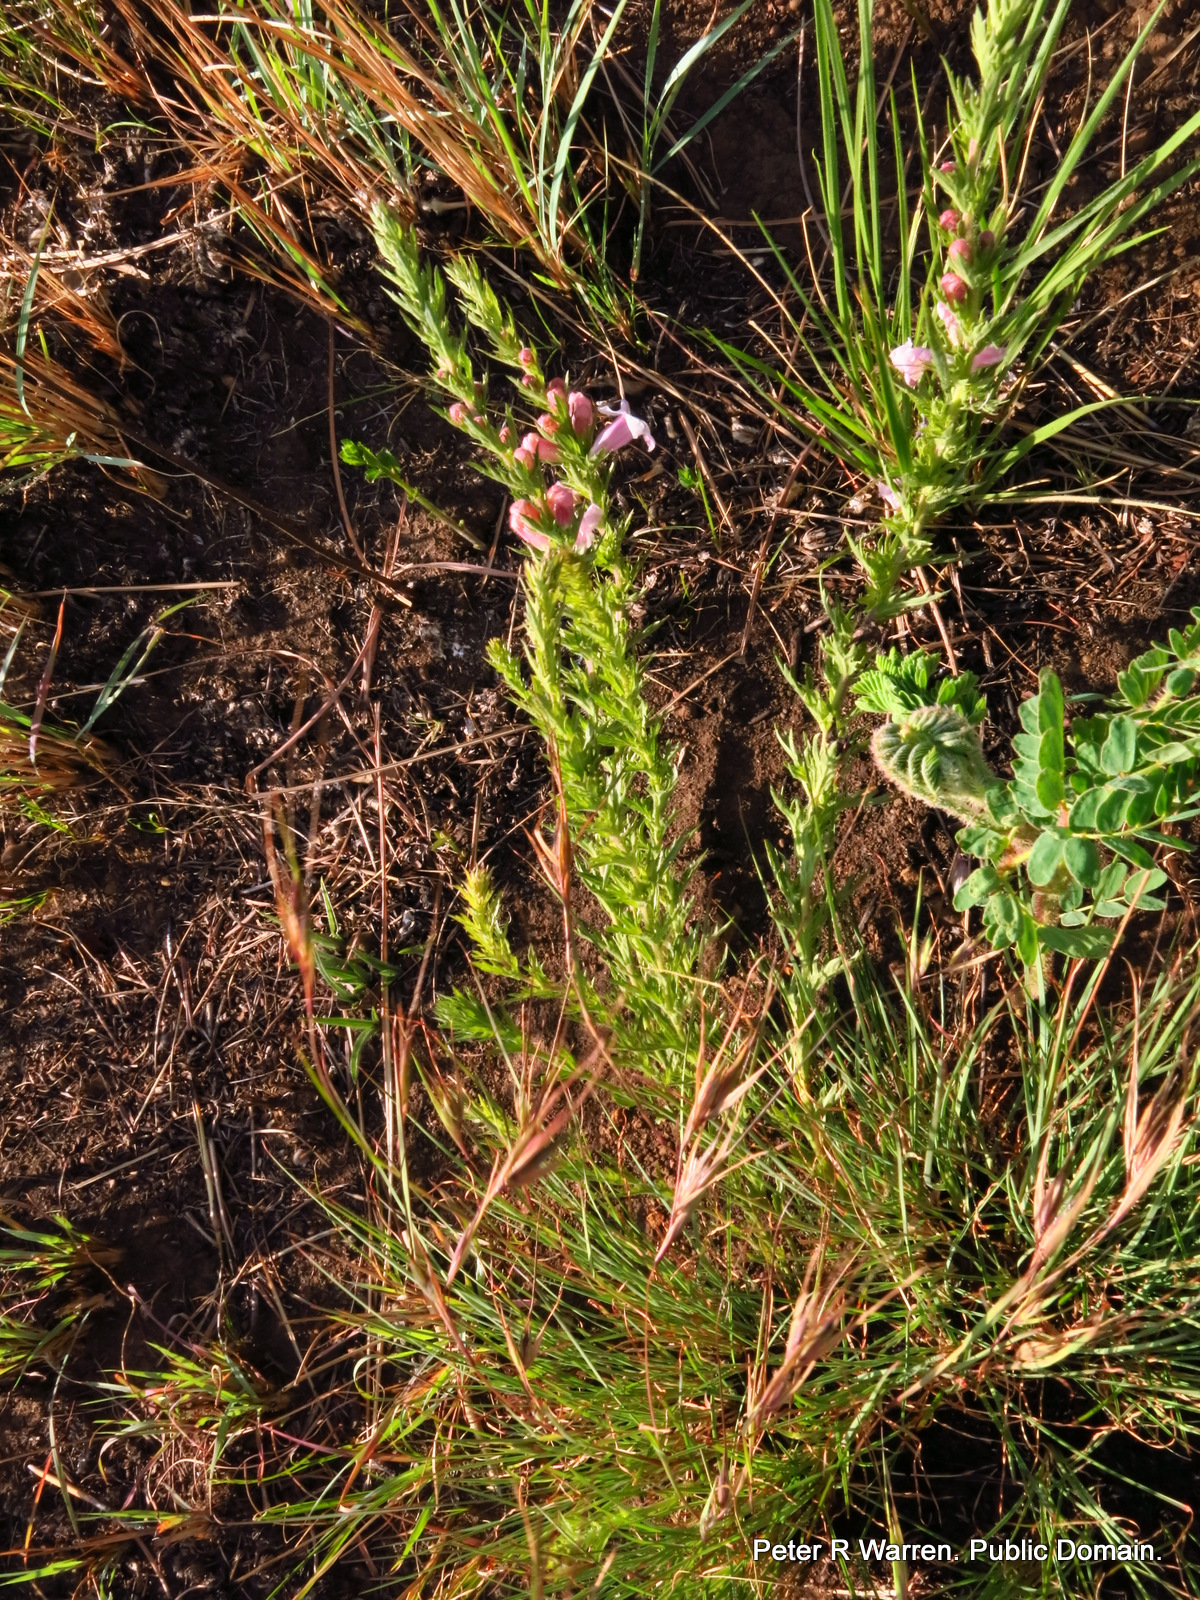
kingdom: Plantae
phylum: Tracheophyta
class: Magnoliopsida
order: Lamiales
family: Orobanchaceae
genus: Graderia
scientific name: Graderia scabra
